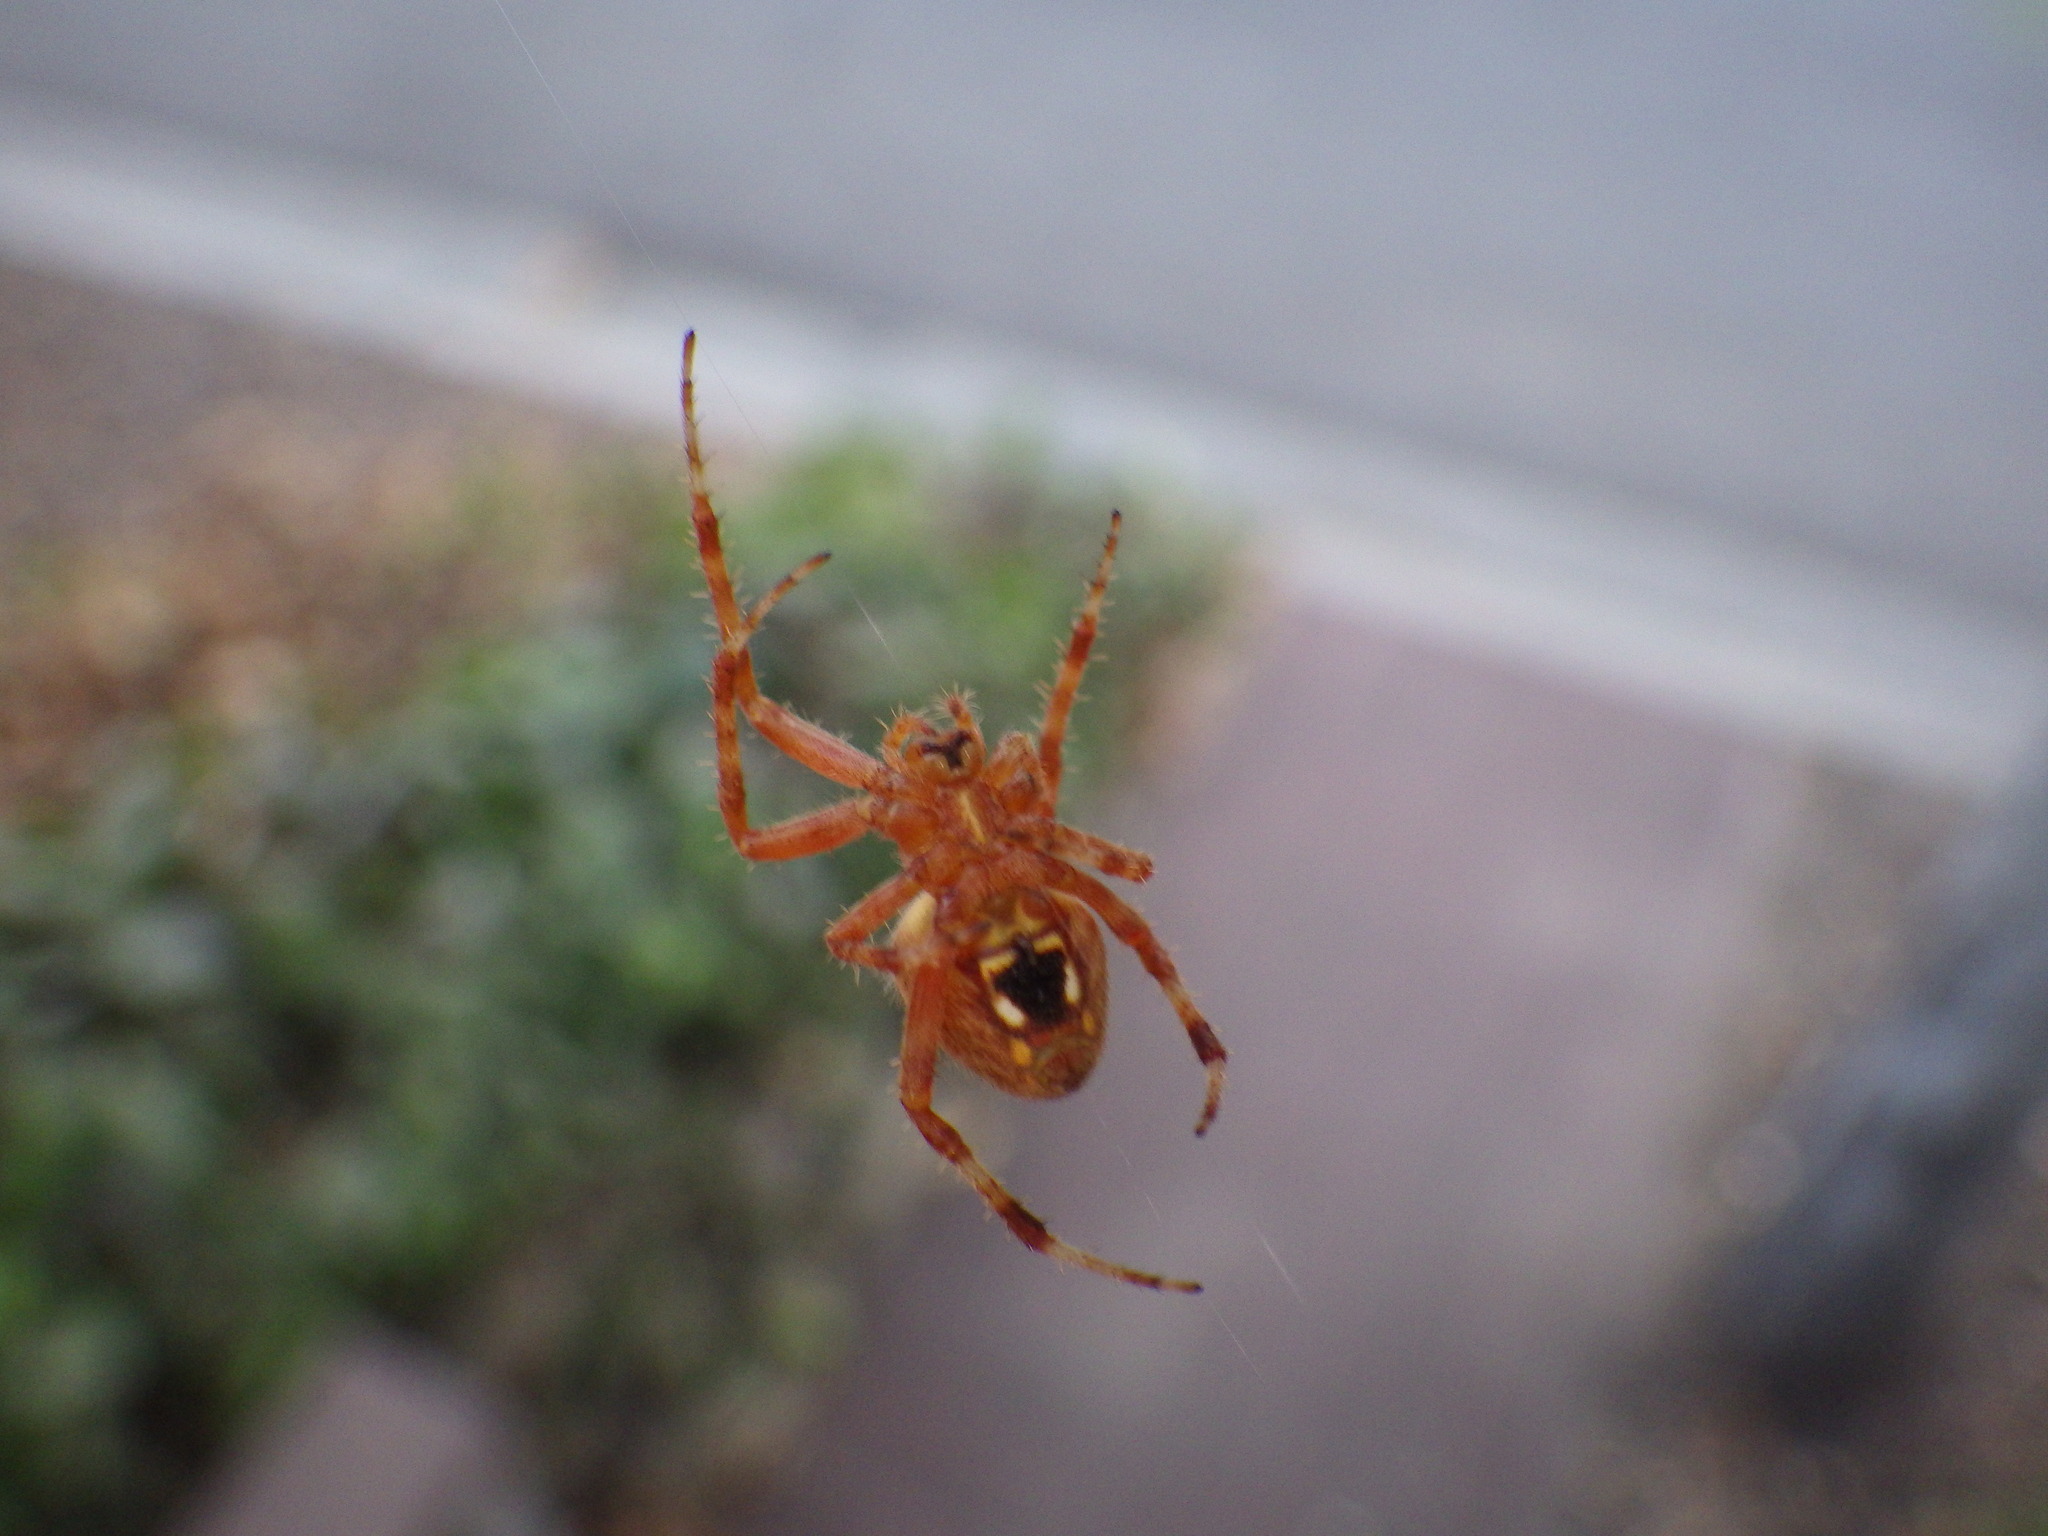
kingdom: Animalia
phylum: Arthropoda
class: Arachnida
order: Araneae
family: Araneidae
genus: Neoscona
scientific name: Neoscona crucifera
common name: Spotted orbweaver
